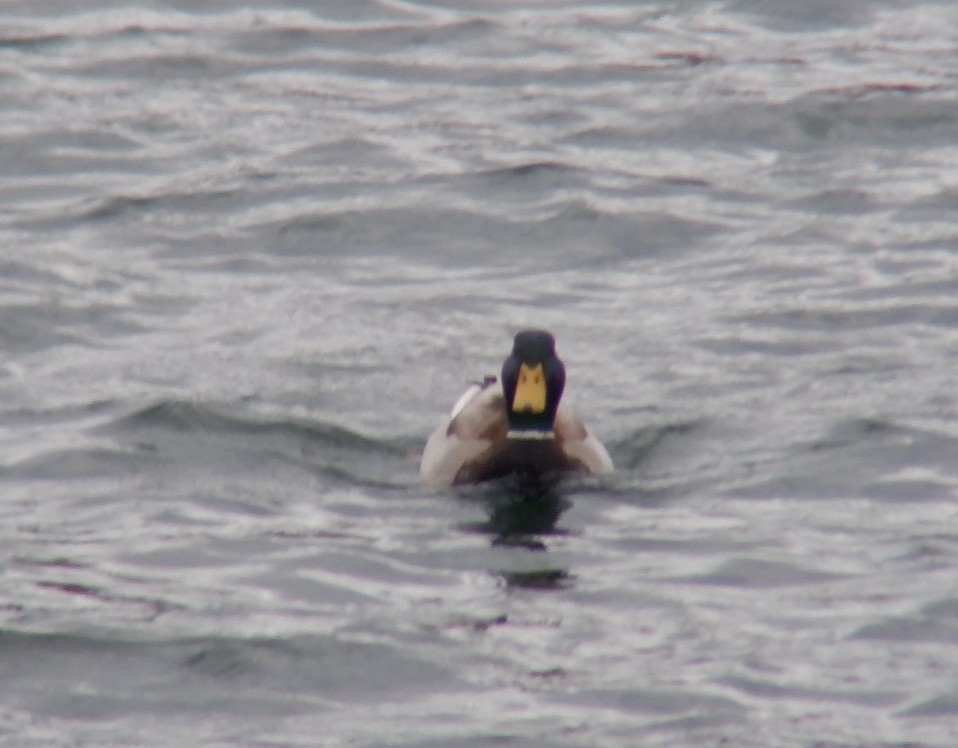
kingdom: Animalia
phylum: Chordata
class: Aves
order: Anseriformes
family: Anatidae
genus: Anas
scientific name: Anas platyrhynchos
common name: Mallard
